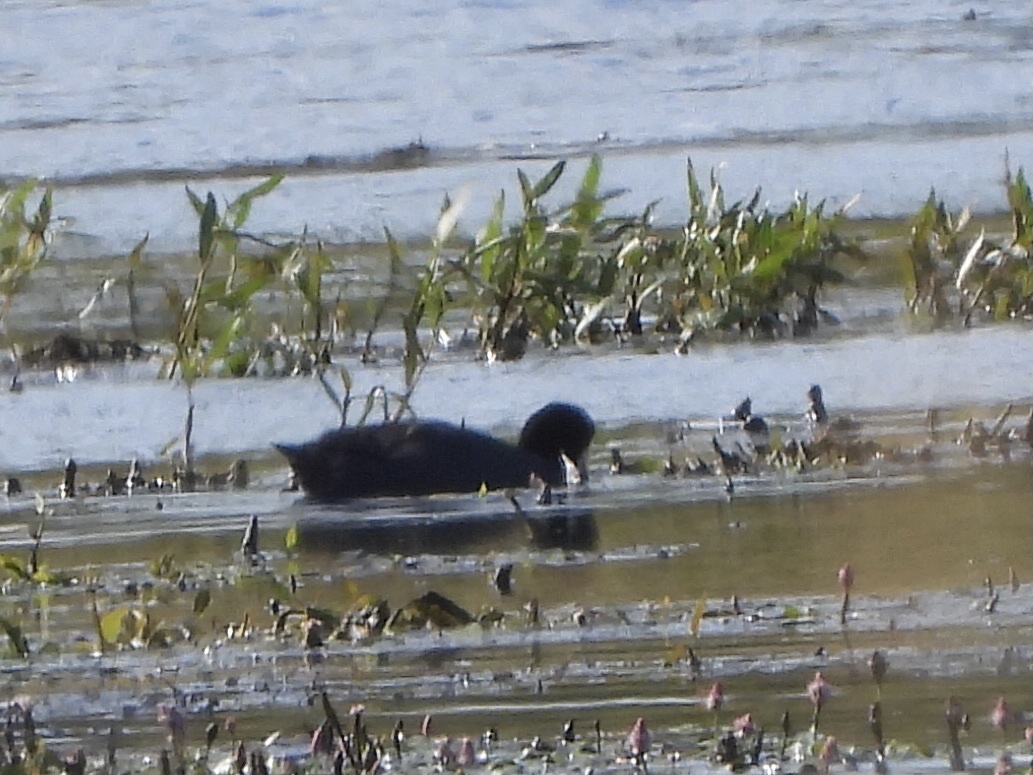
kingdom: Animalia
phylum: Chordata
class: Aves
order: Gruiformes
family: Rallidae
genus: Fulica
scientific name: Fulica americana
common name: American coot
